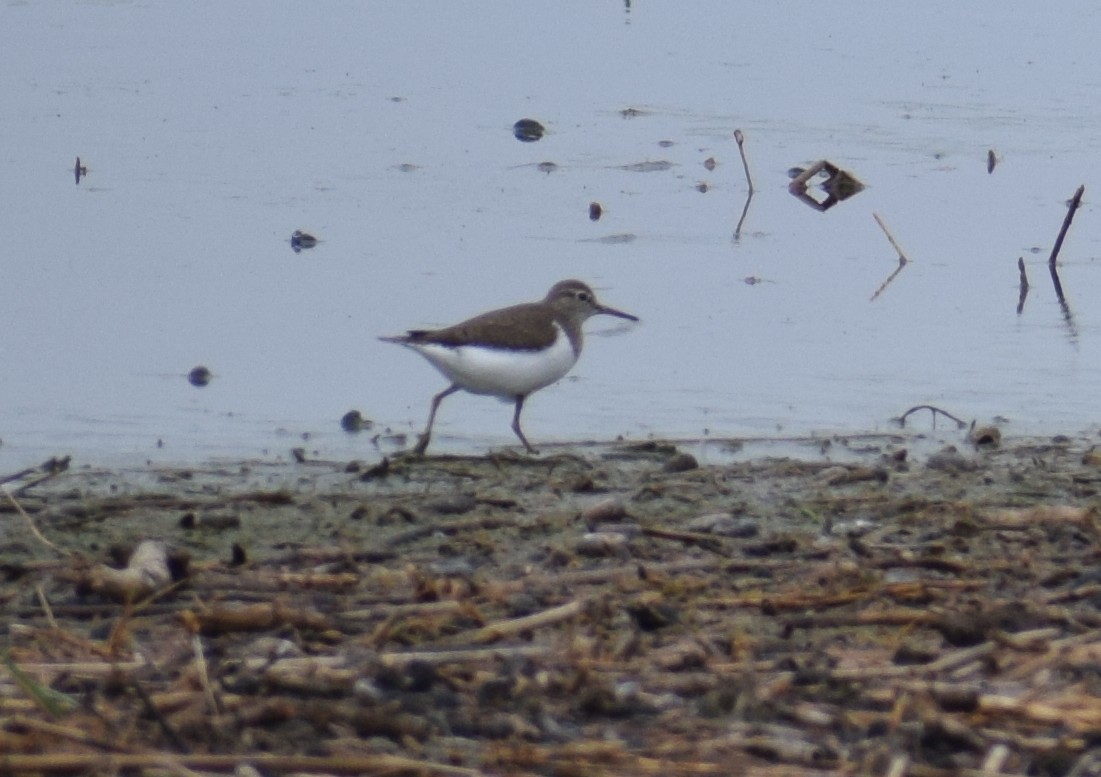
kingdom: Animalia
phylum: Chordata
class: Aves
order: Charadriiformes
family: Scolopacidae
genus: Actitis
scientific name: Actitis hypoleucos
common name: Common sandpiper
